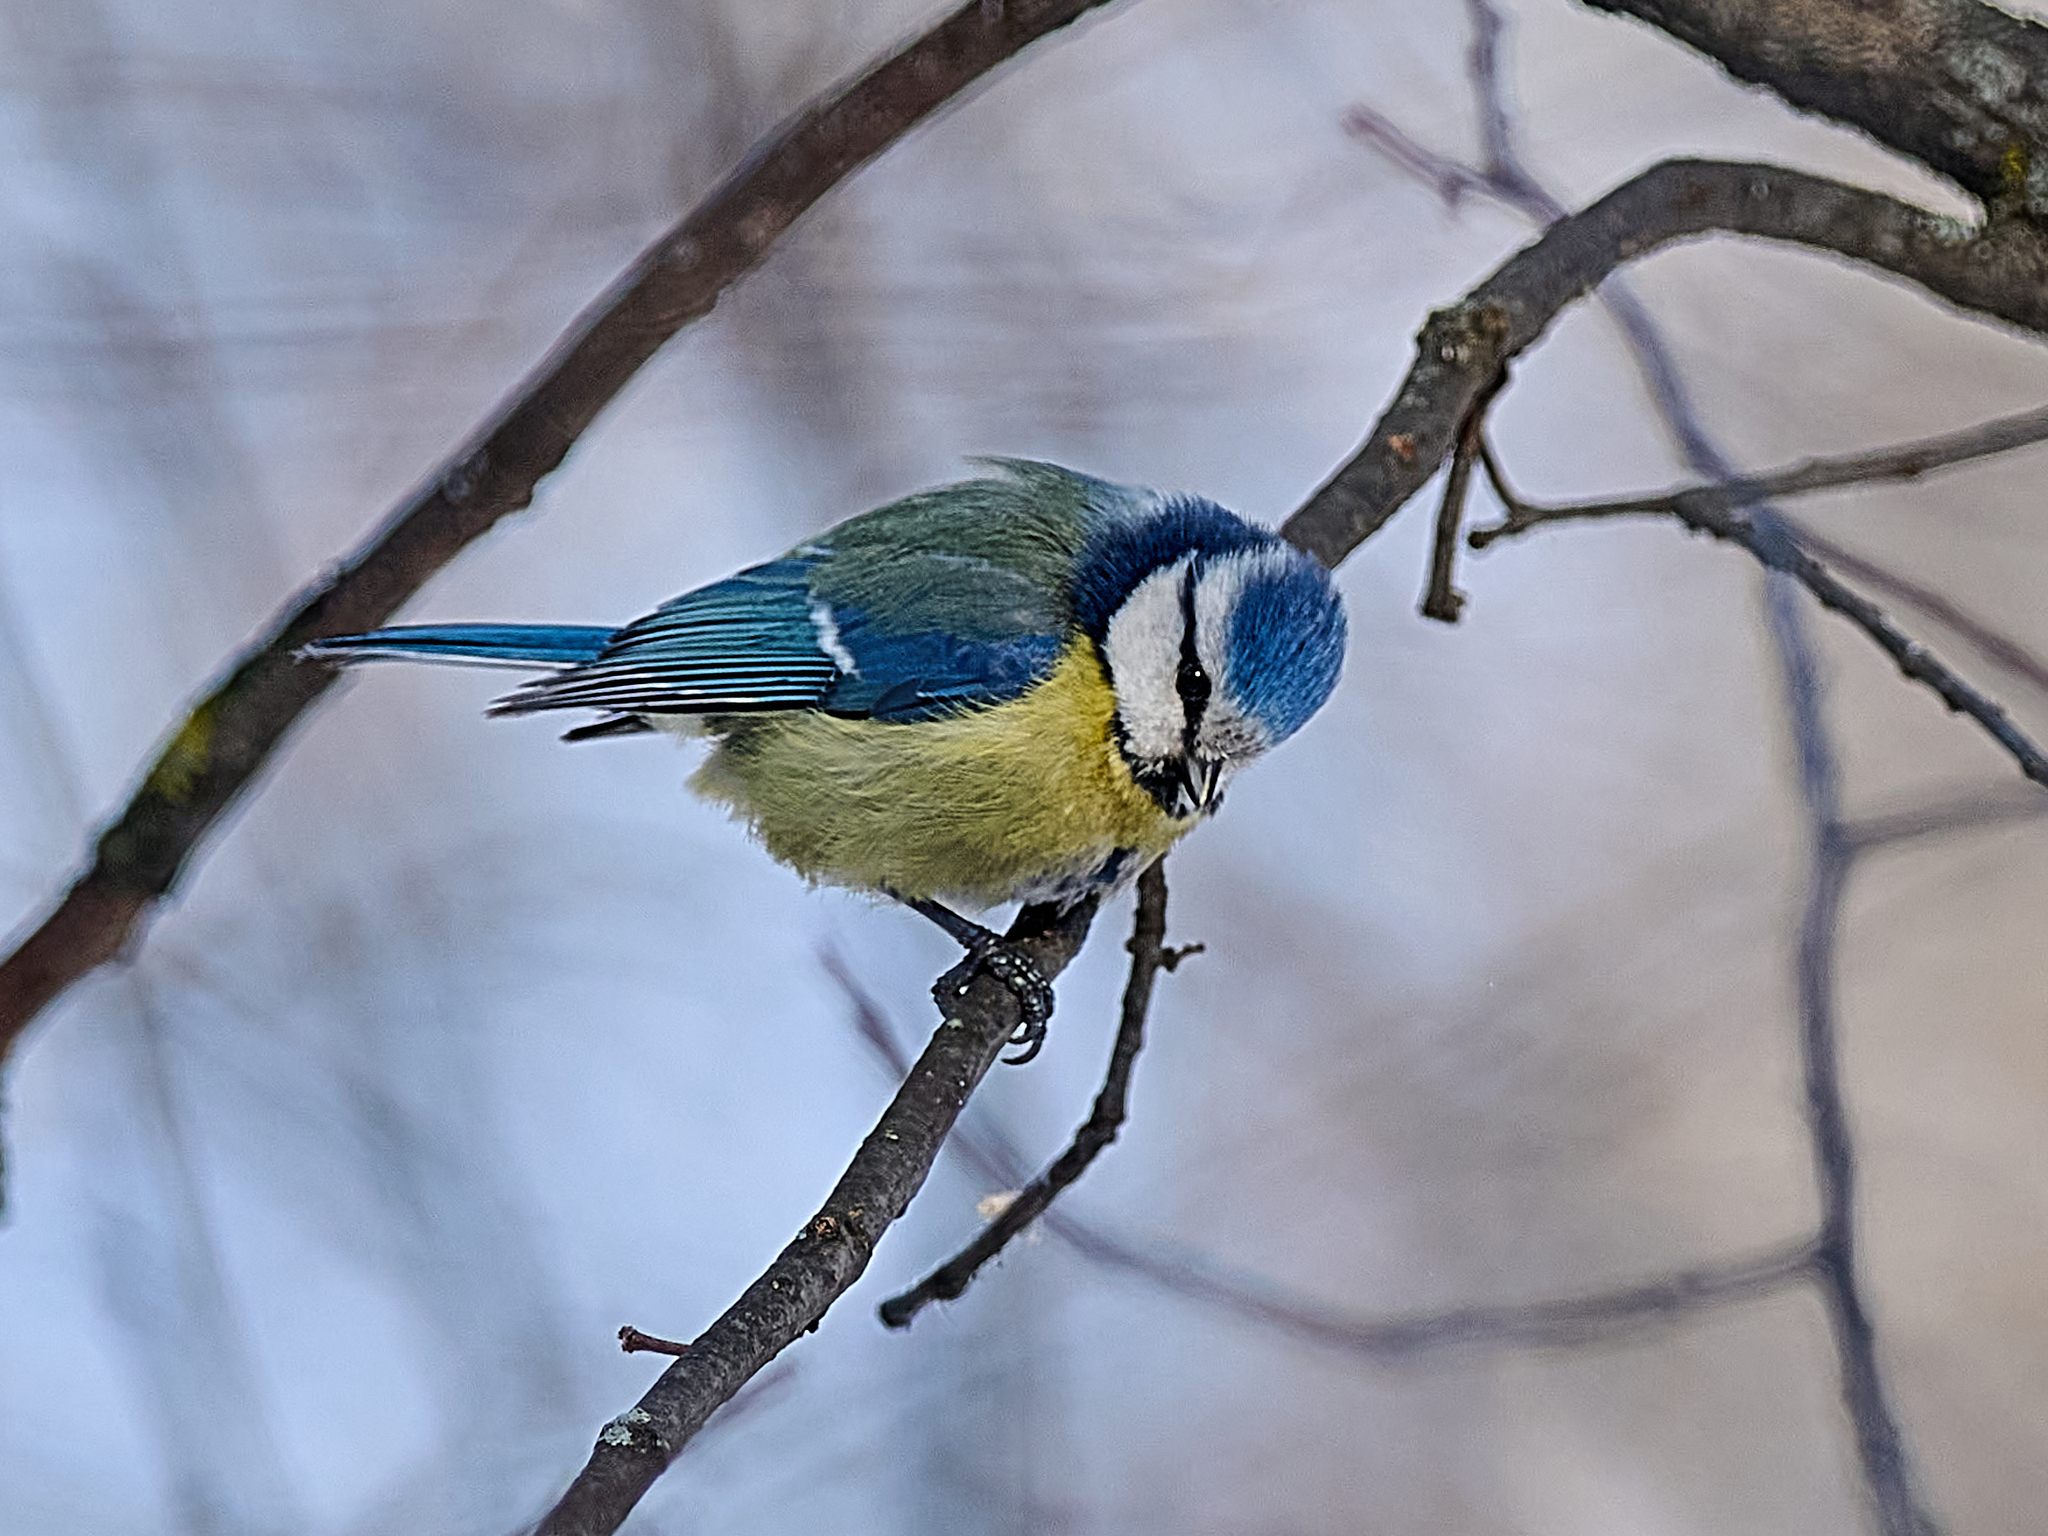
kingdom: Animalia
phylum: Chordata
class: Aves
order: Passeriformes
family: Paridae
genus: Cyanistes
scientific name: Cyanistes caeruleus
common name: Eurasian blue tit
